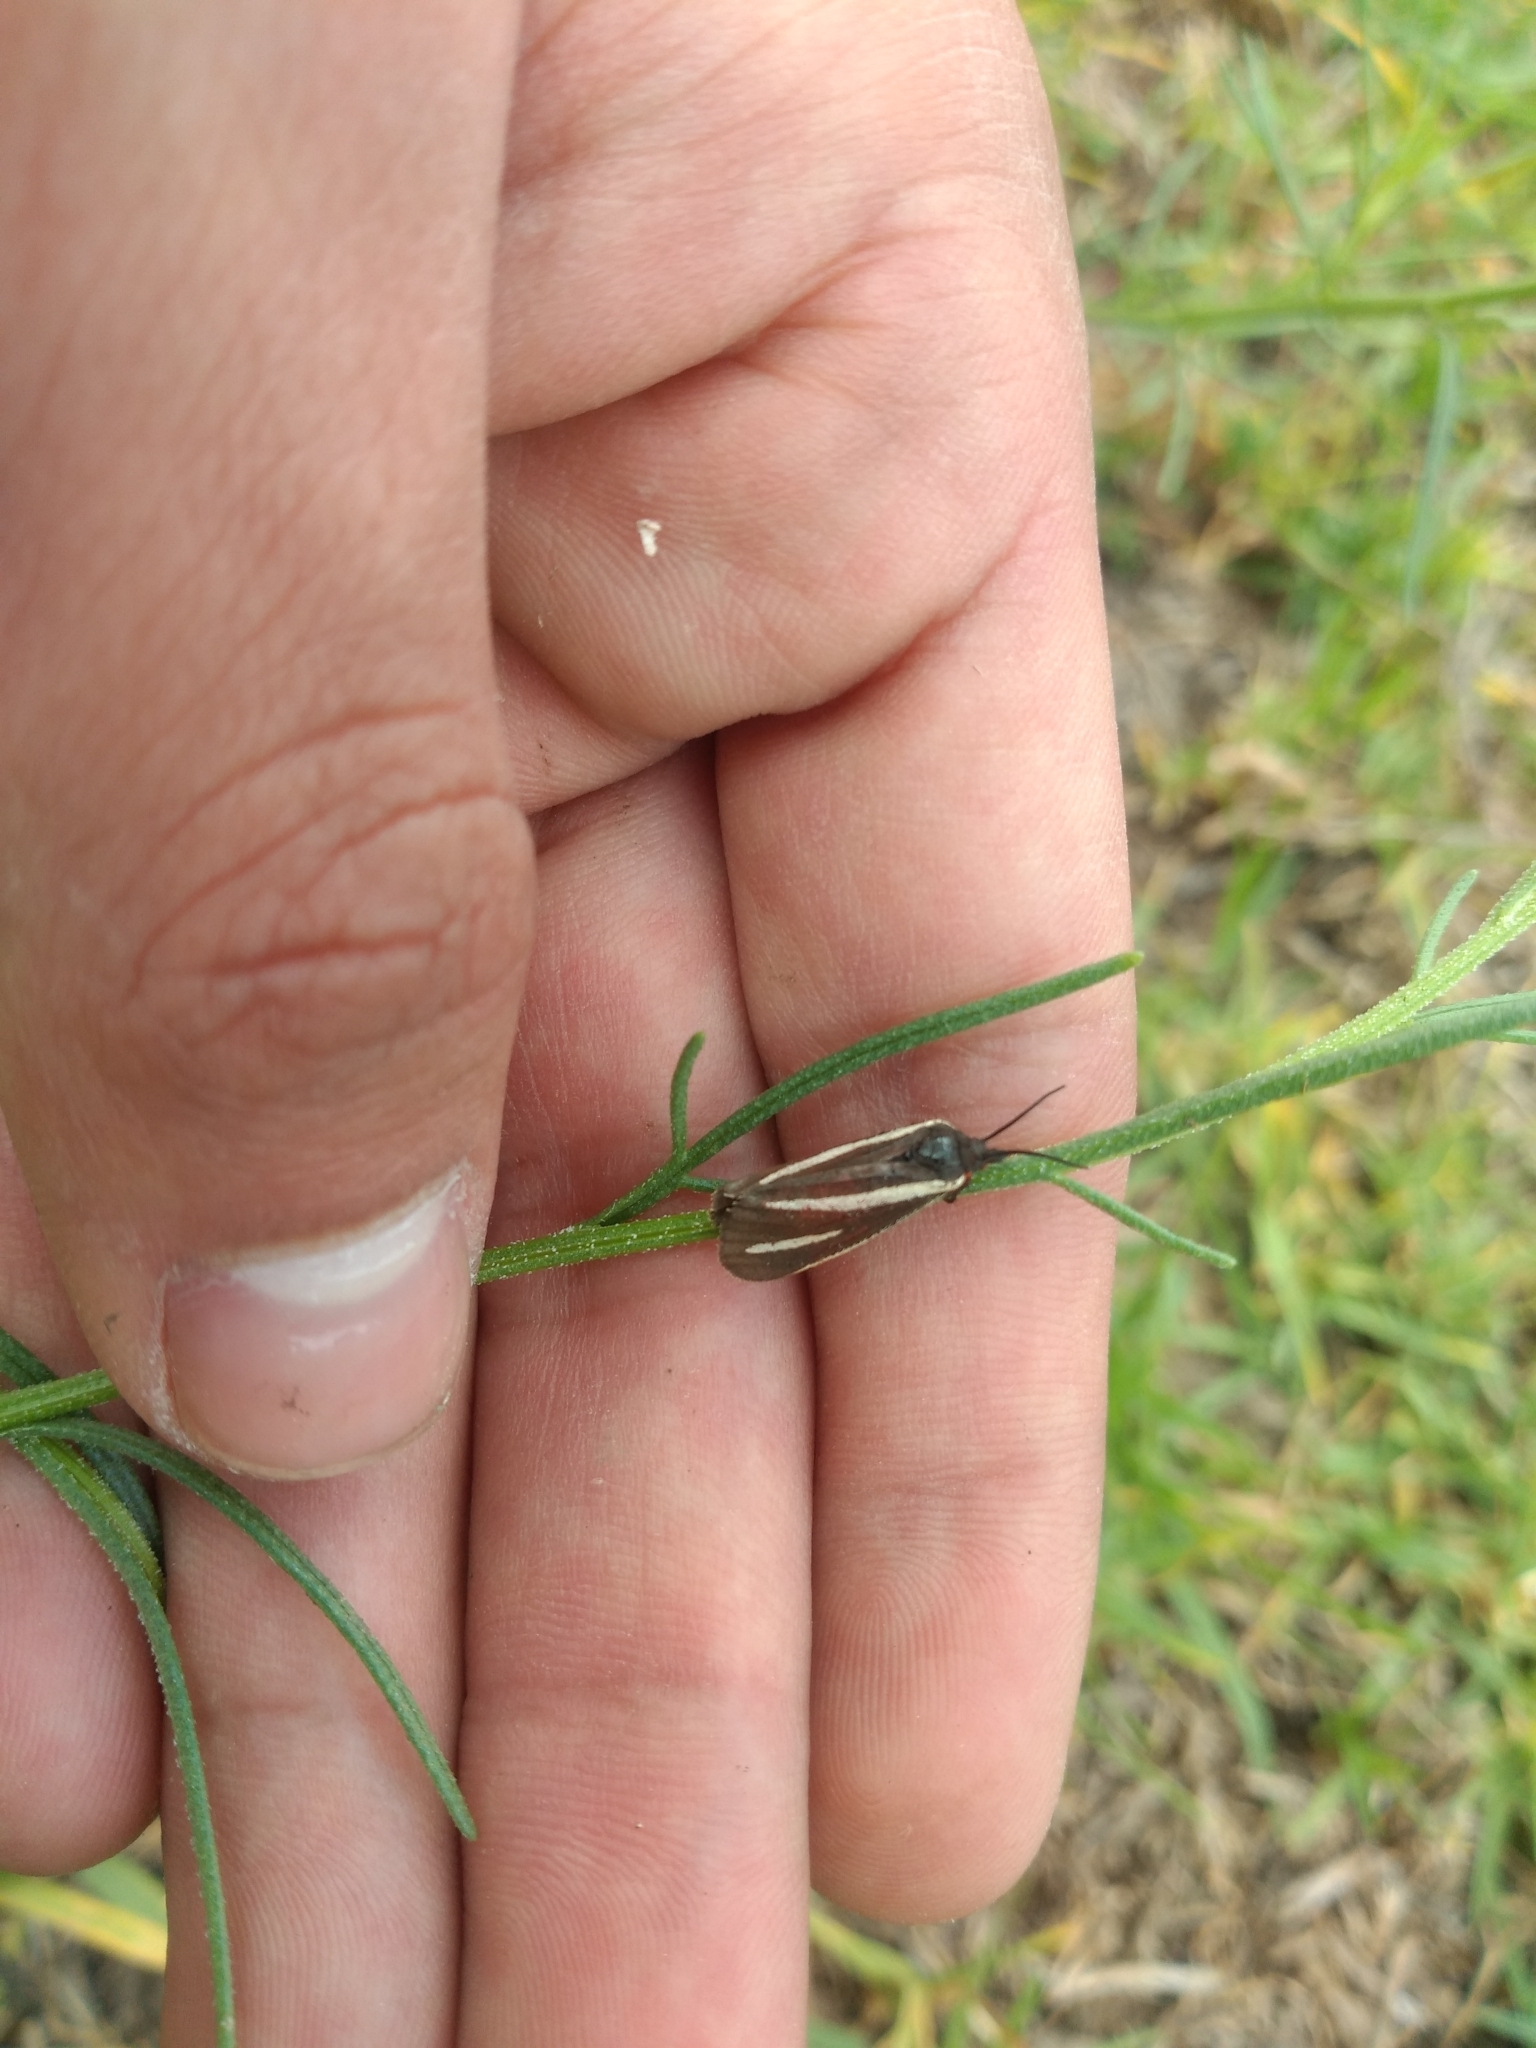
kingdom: Animalia
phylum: Arthropoda
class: Insecta
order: Lepidoptera
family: Erebidae
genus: Virbia
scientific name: Virbia polyphron
